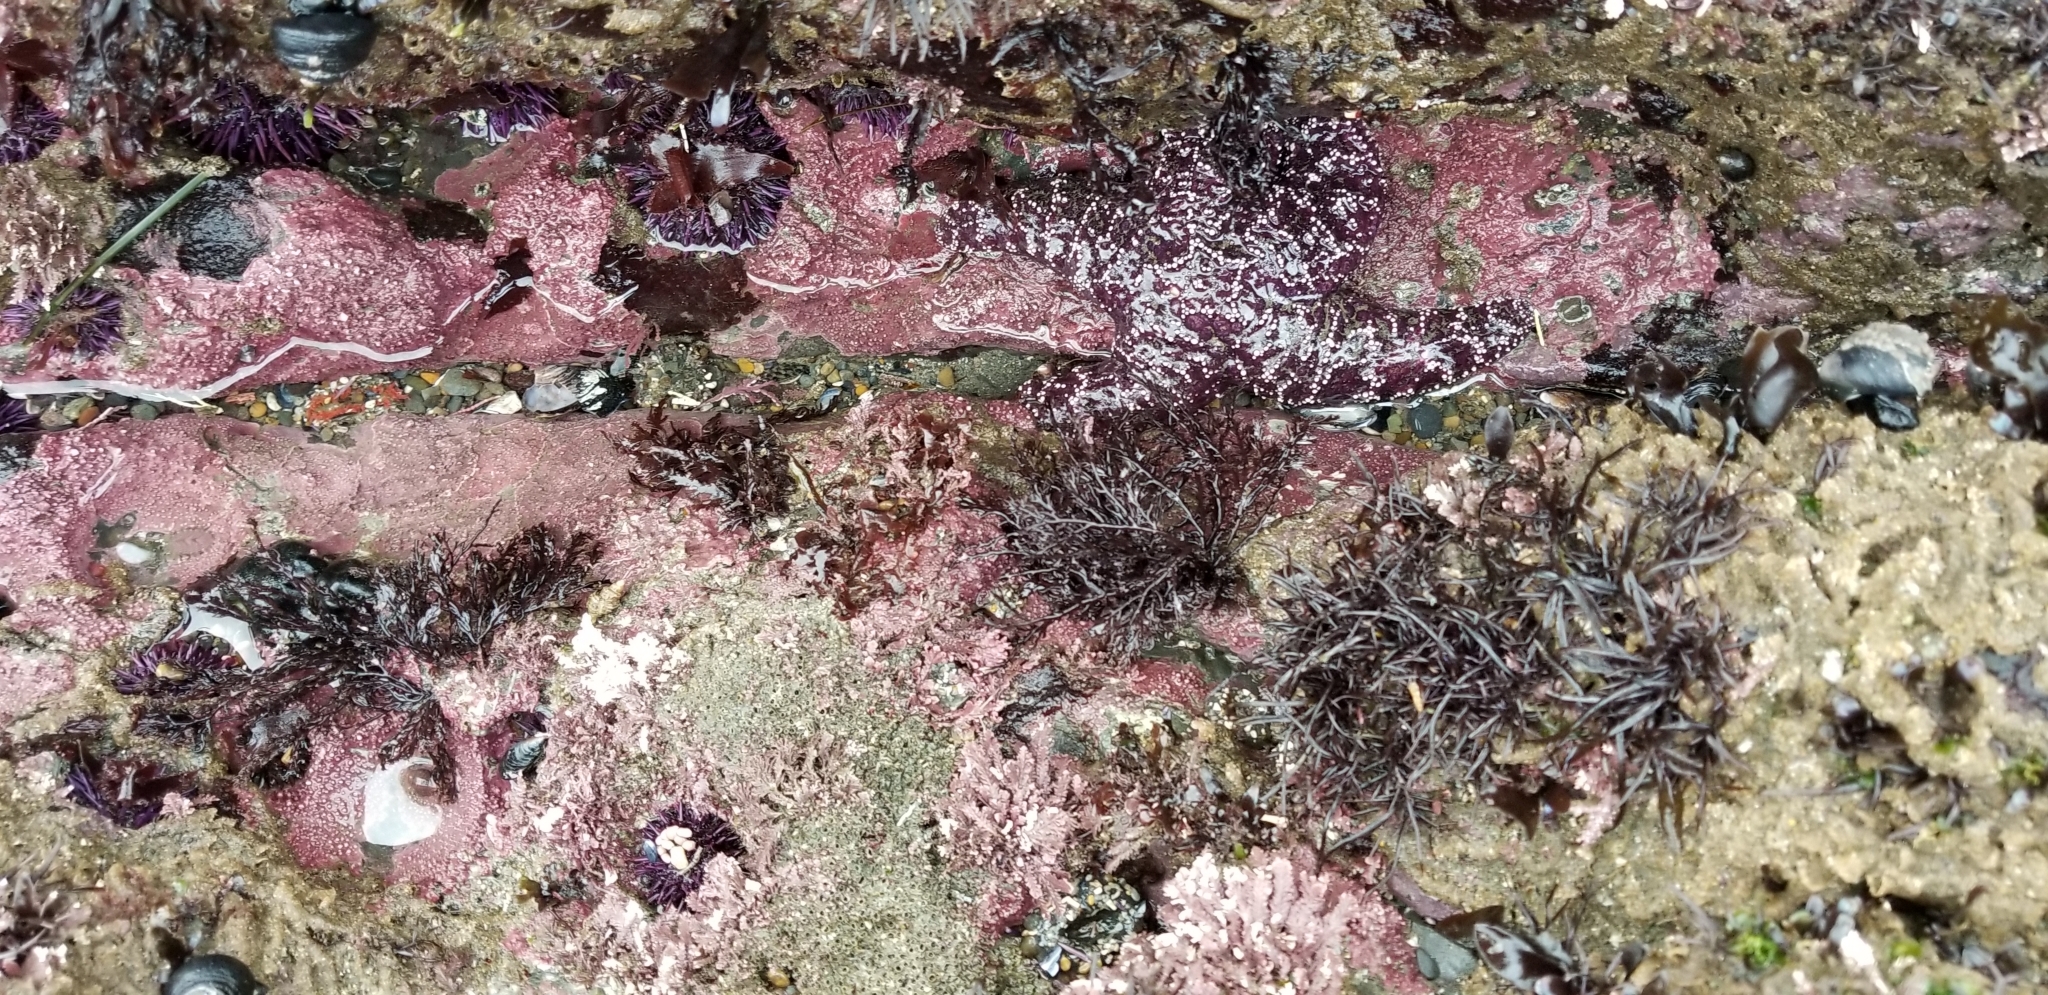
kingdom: Animalia
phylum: Echinodermata
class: Asteroidea
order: Forcipulatida
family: Asteriidae
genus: Pisaster
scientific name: Pisaster ochraceus
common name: Ochre stars
